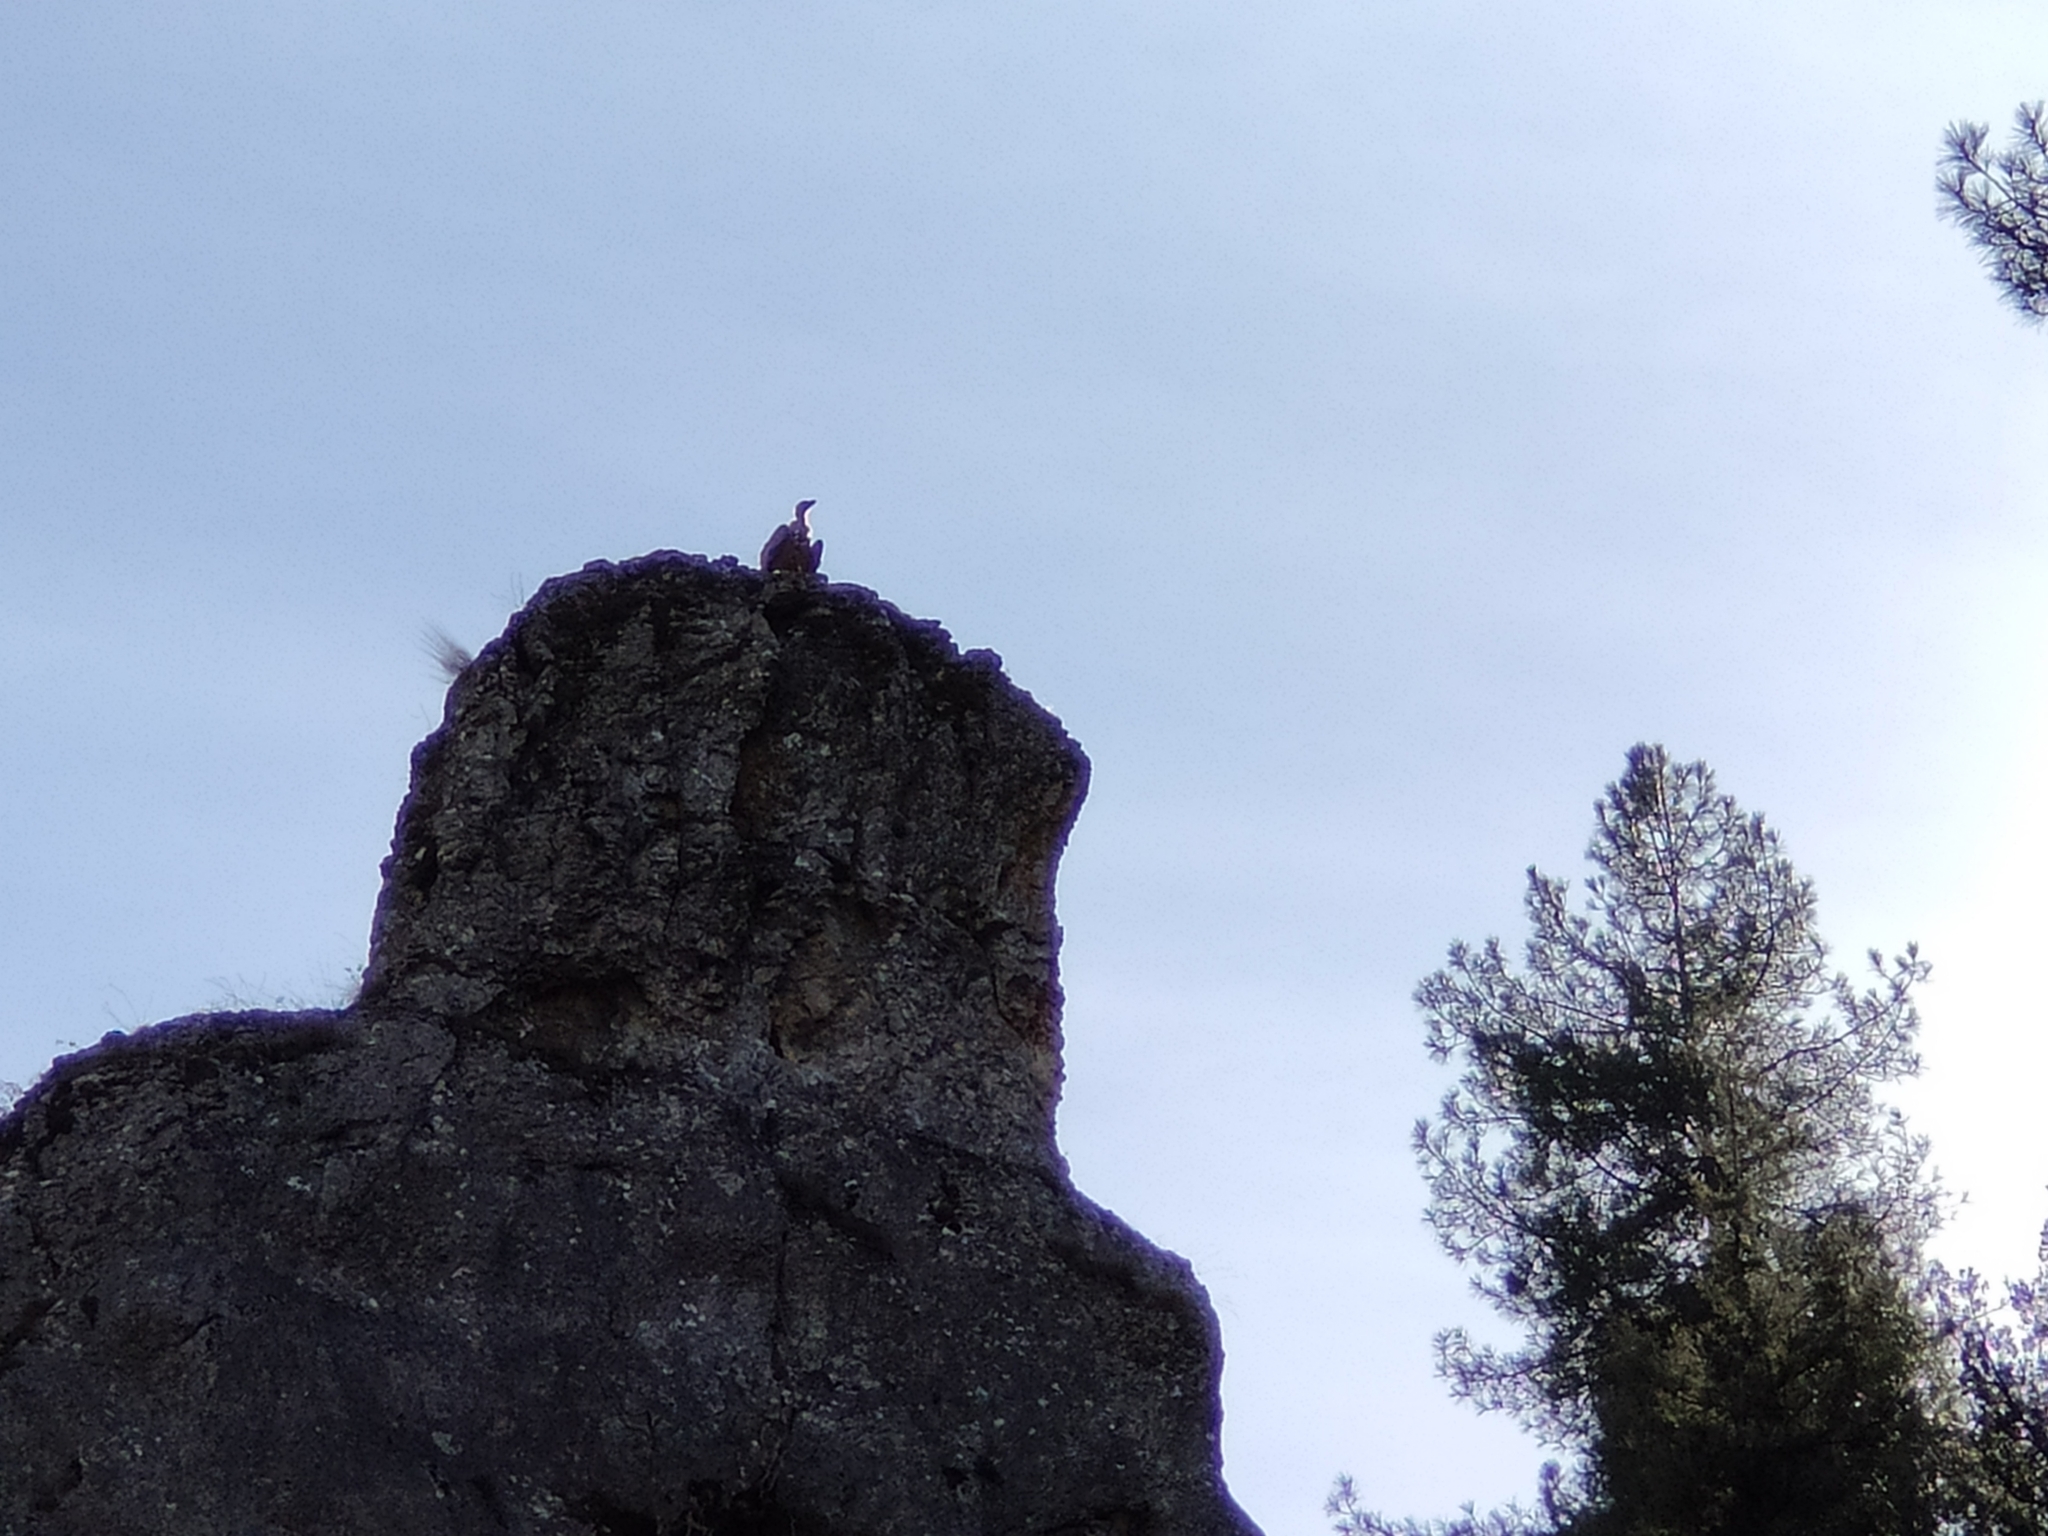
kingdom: Animalia
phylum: Chordata
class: Aves
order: Accipitriformes
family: Accipitridae
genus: Gyps
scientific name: Gyps fulvus
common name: Griffon vulture
